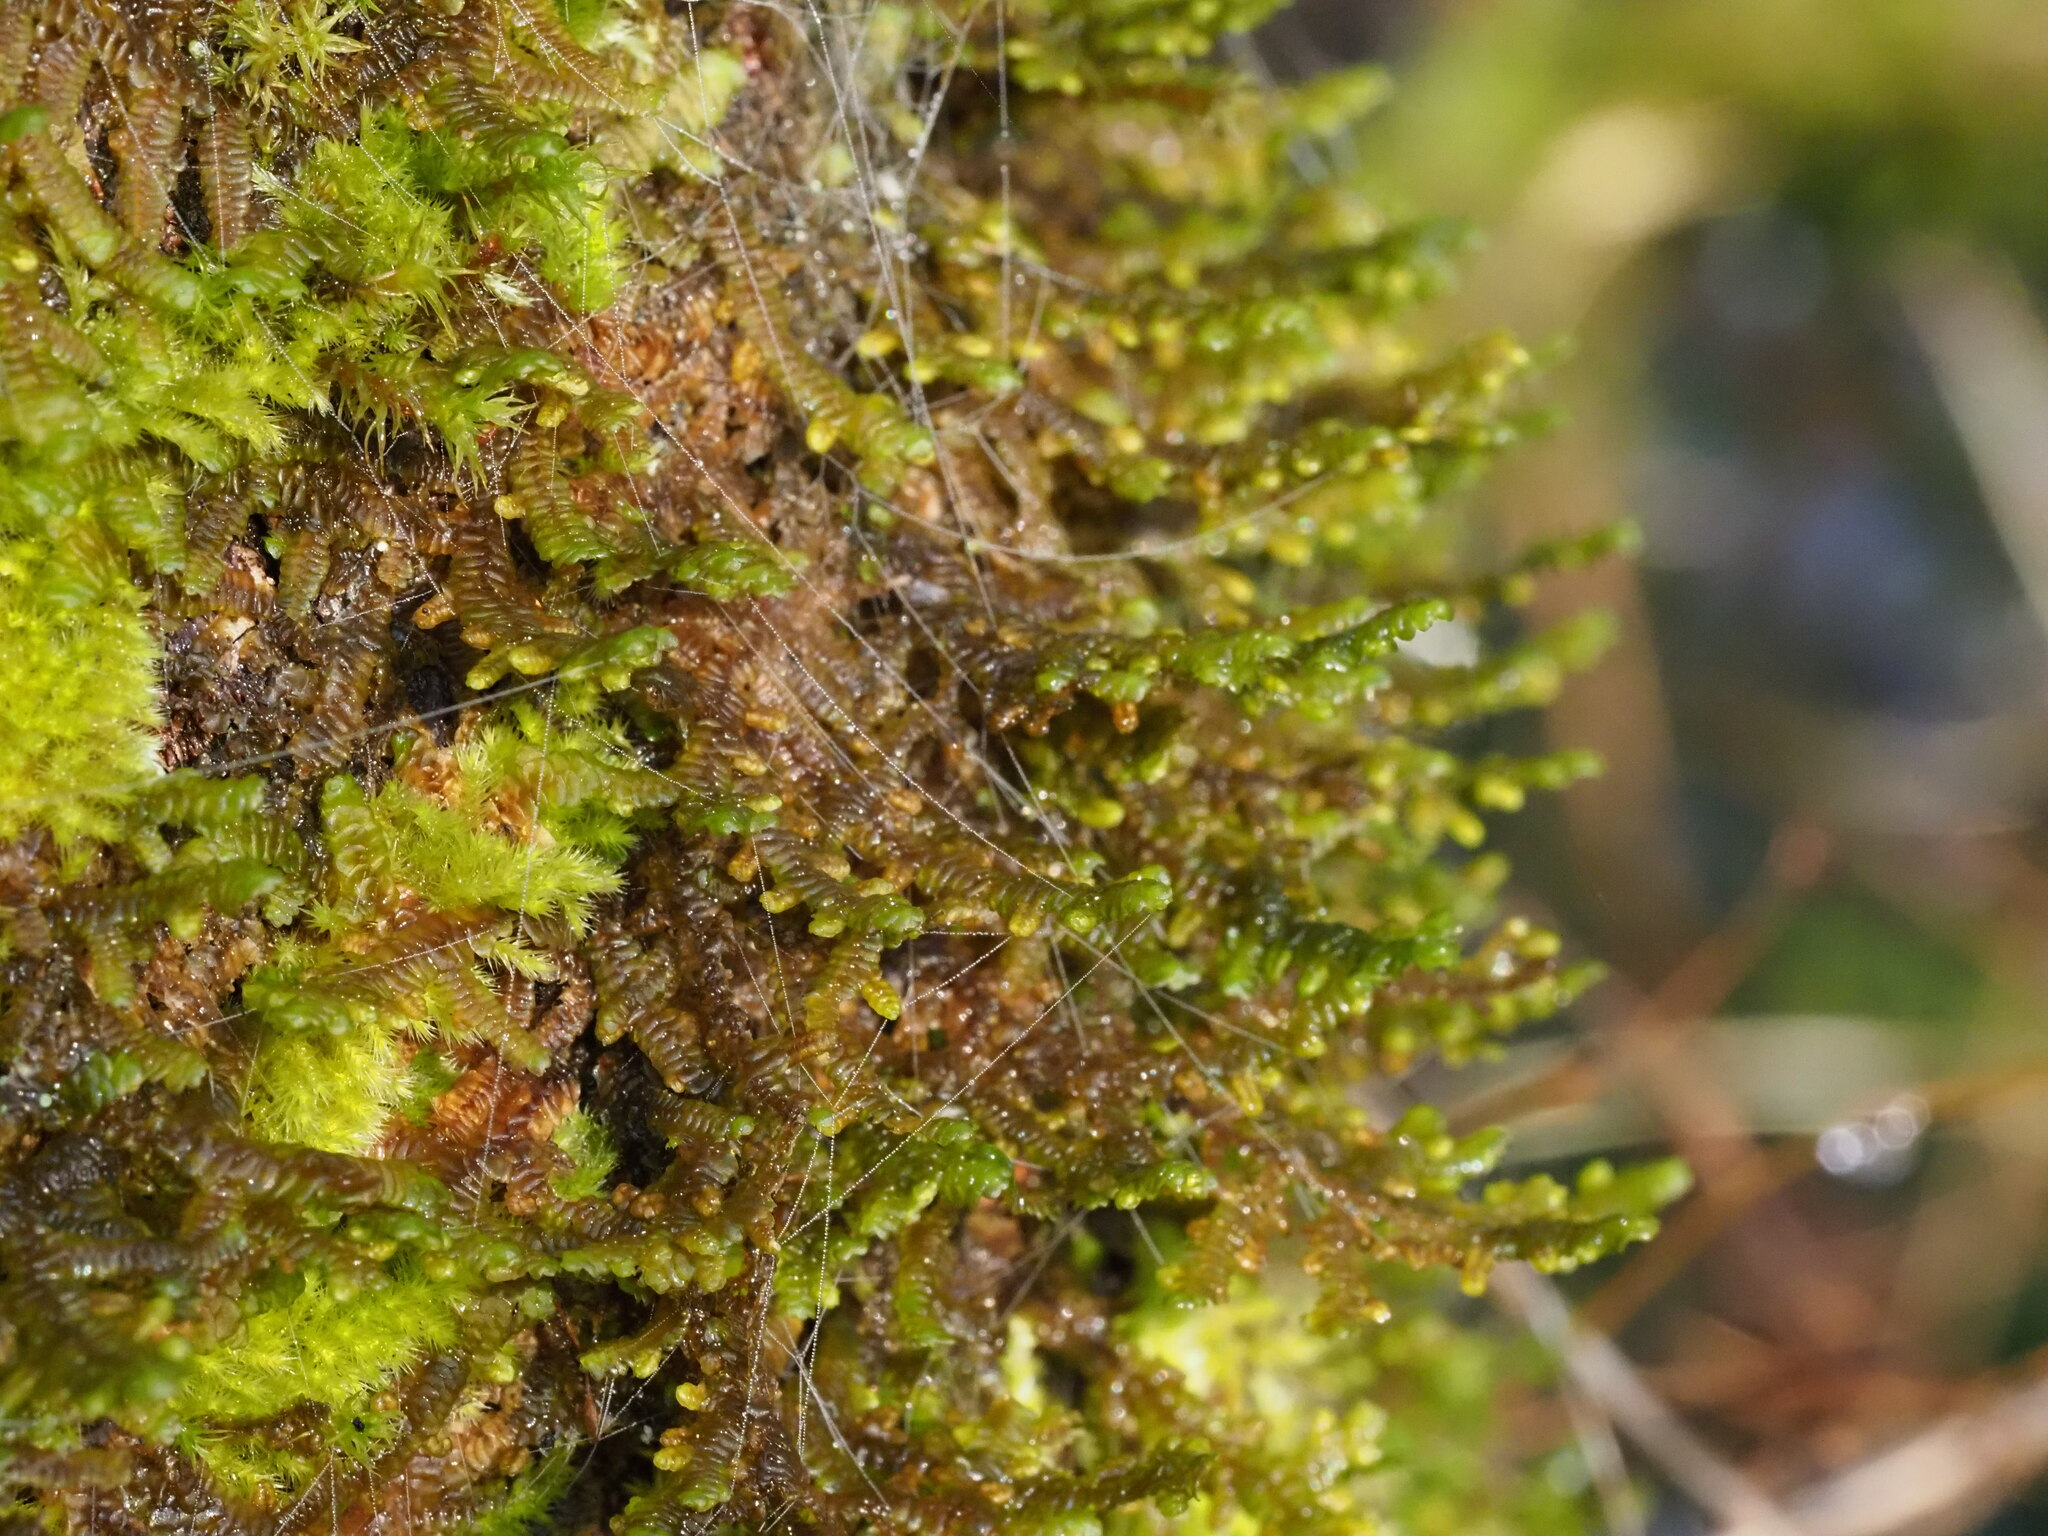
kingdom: Plantae
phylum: Marchantiophyta
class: Jungermanniopsida
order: Porellales
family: Porellaceae
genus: Porella
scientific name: Porella navicularis
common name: Tree ruffle liverwort
